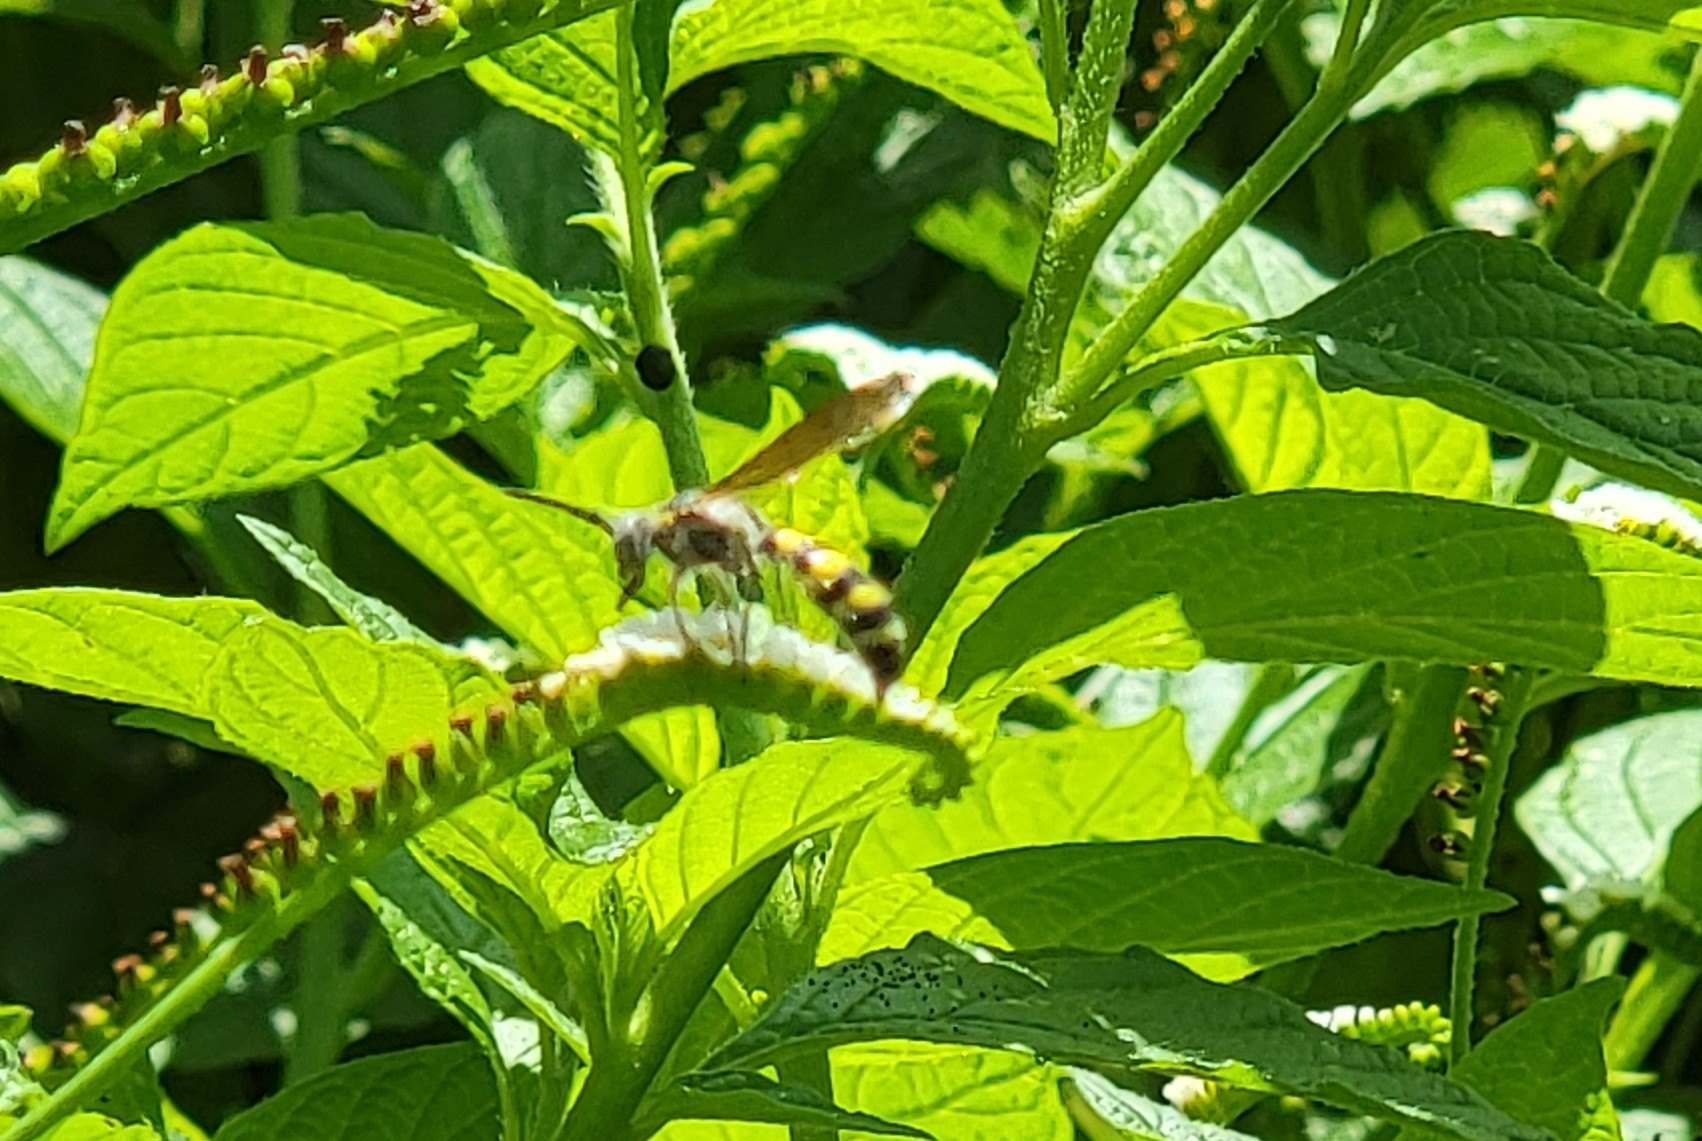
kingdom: Animalia
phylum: Arthropoda
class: Insecta
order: Hymenoptera
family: Scoliidae
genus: Dielis
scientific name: Dielis
